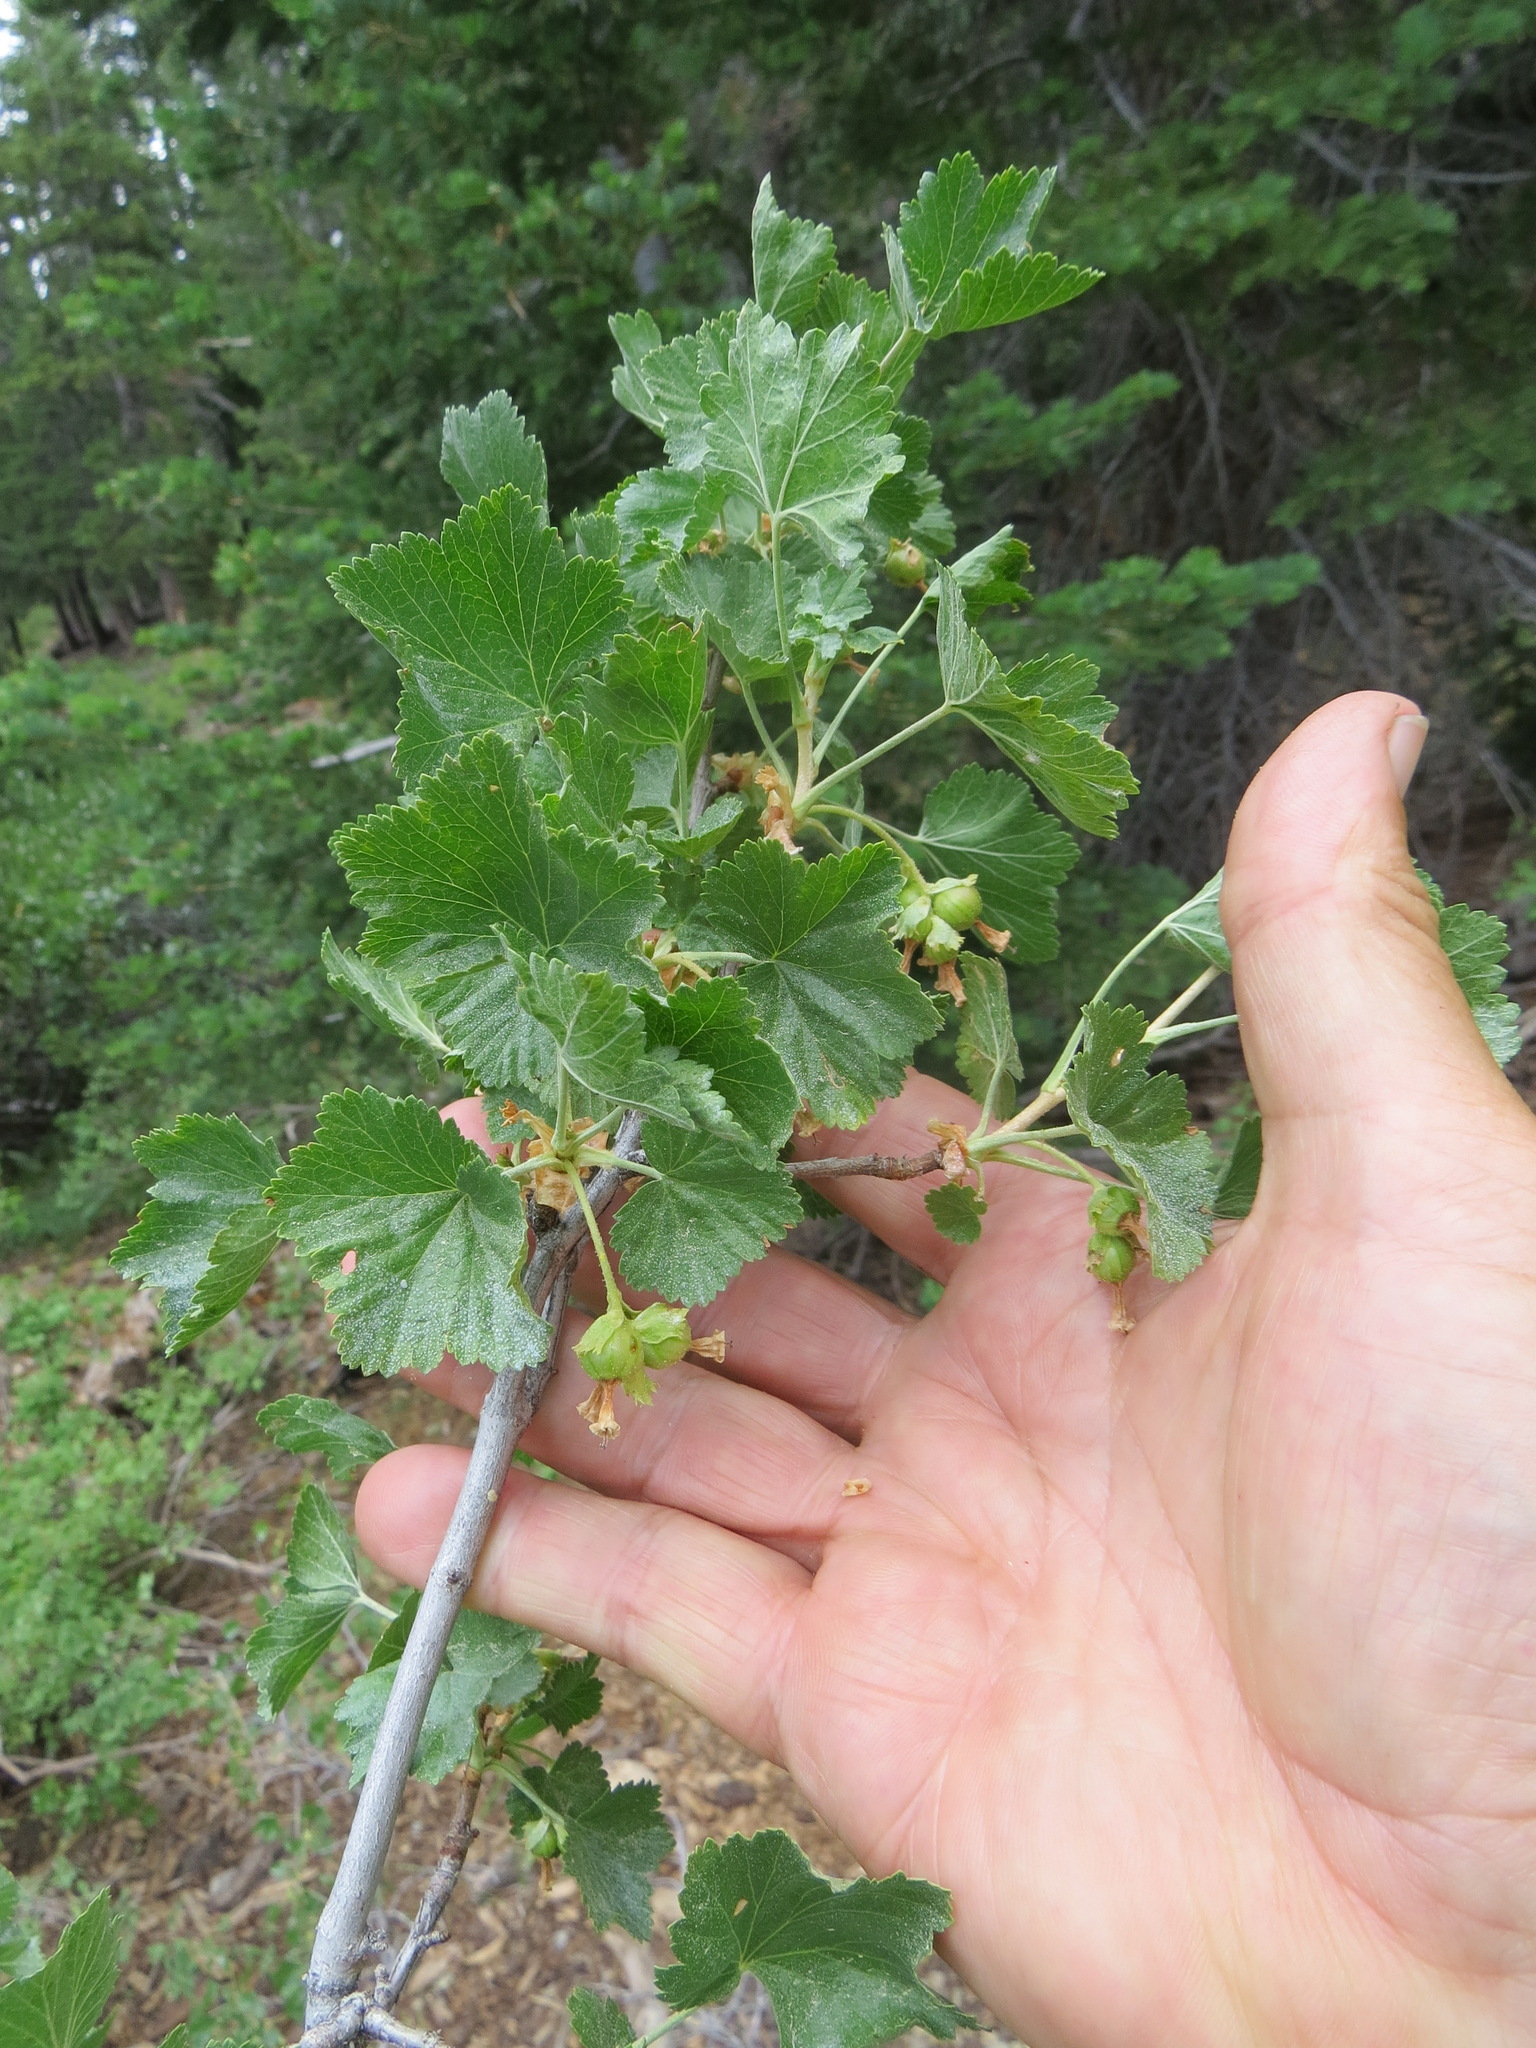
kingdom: Plantae
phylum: Tracheophyta
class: Magnoliopsida
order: Saxifragales
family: Grossulariaceae
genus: Ribes
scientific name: Ribes cereum
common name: Wax currant
